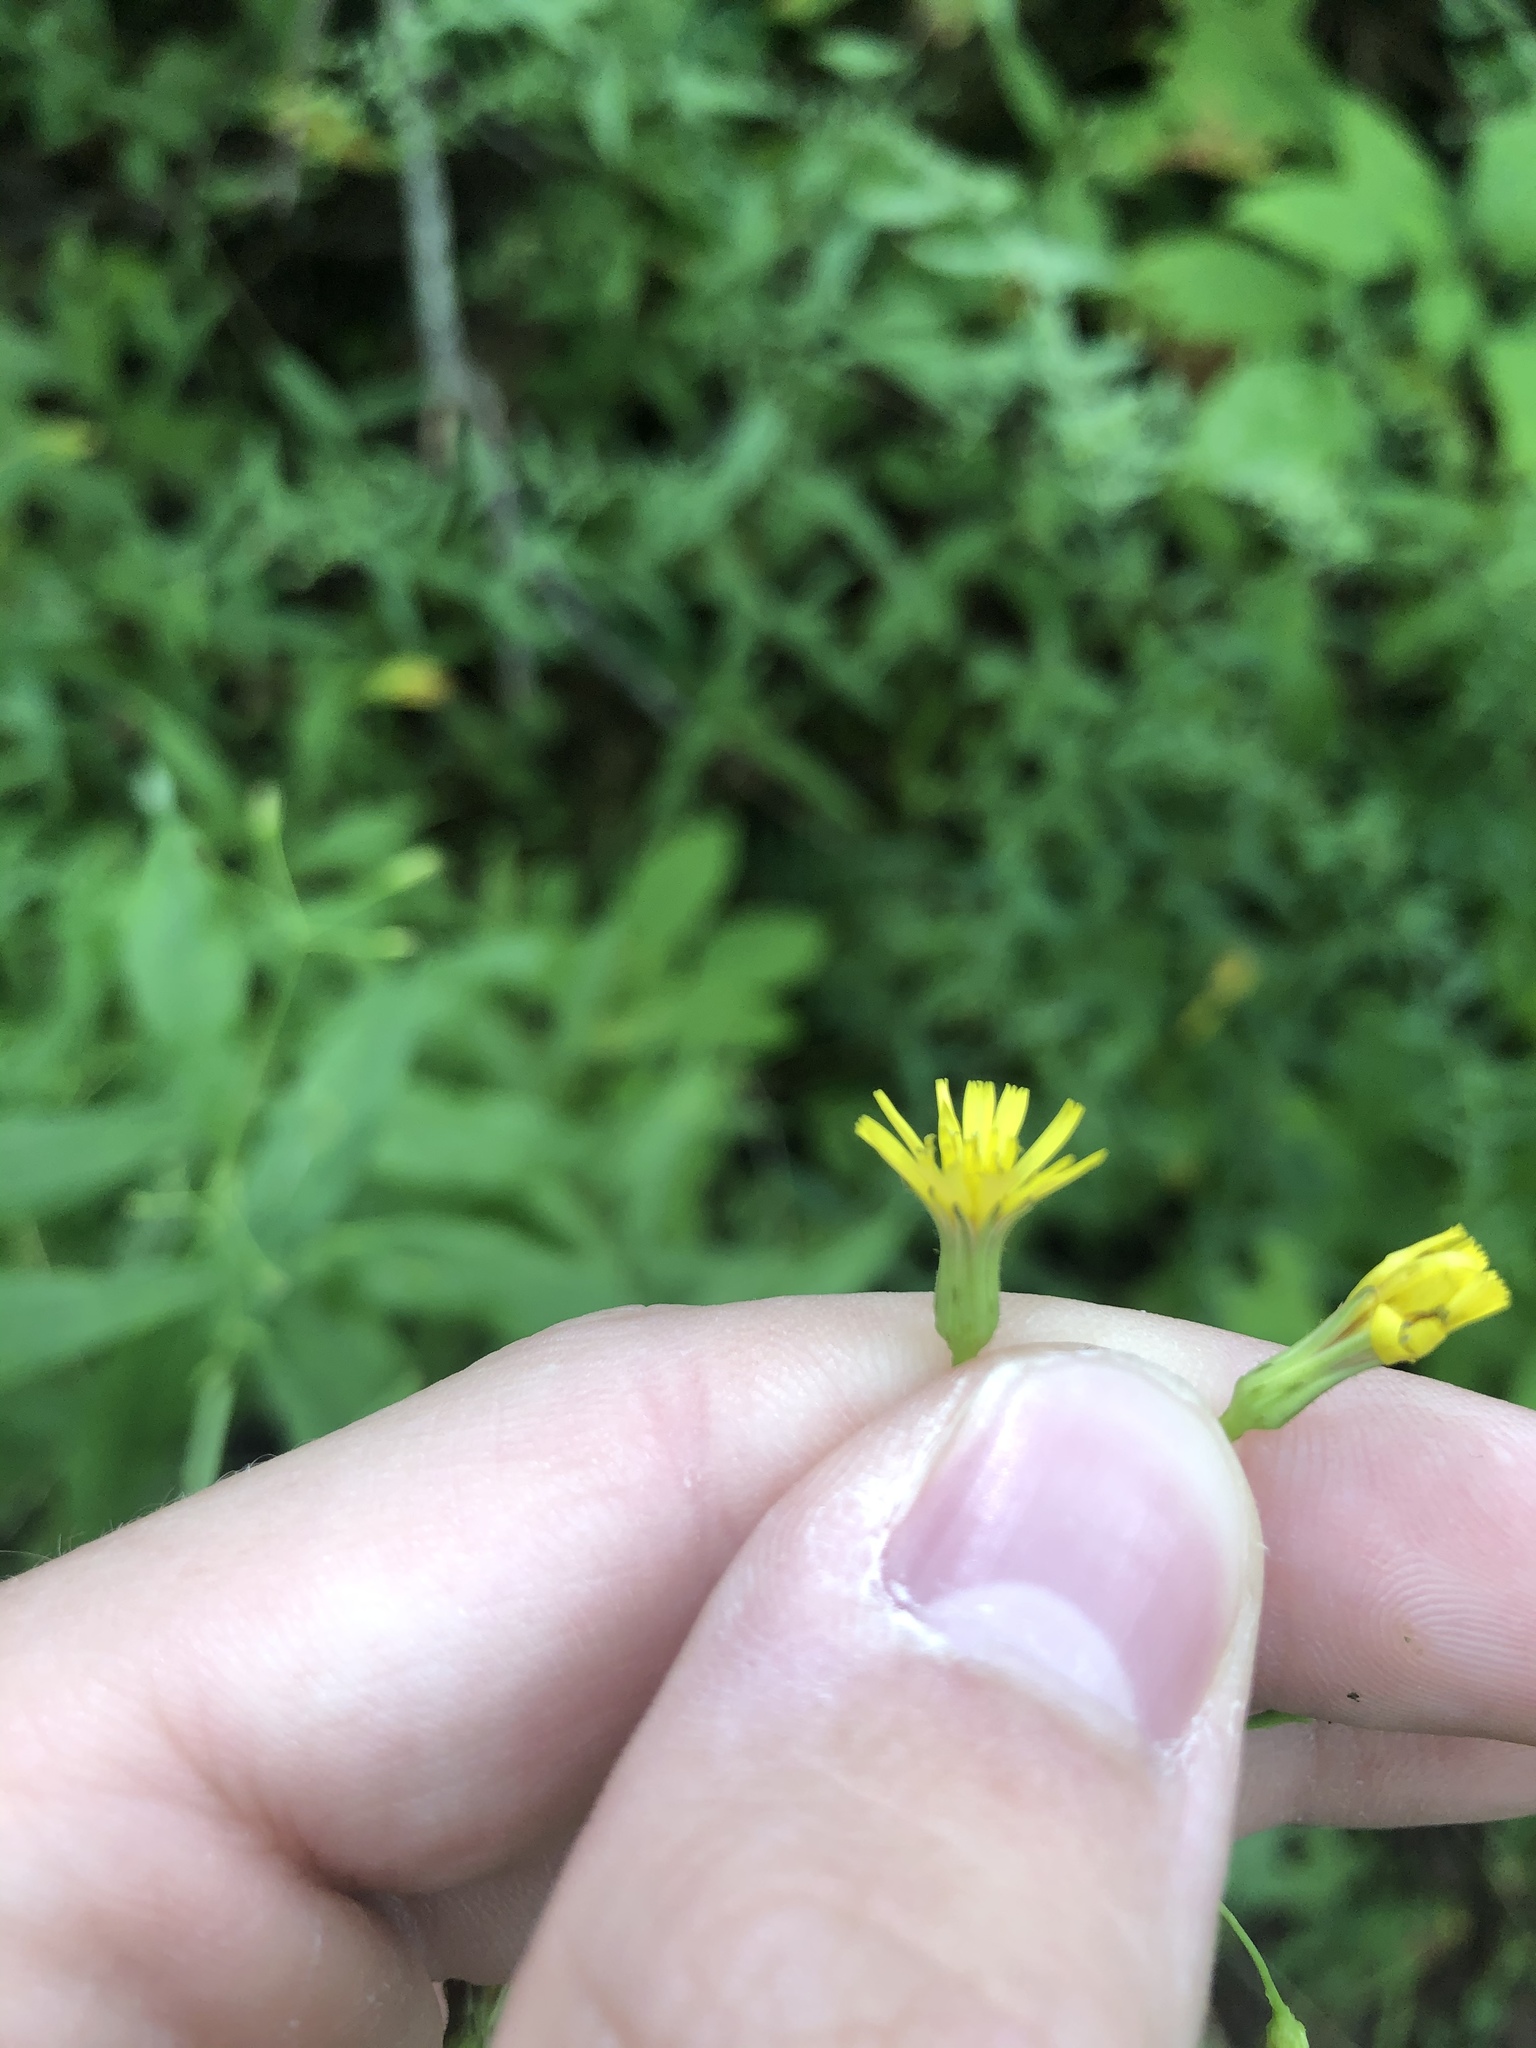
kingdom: Plantae
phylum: Tracheophyta
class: Magnoliopsida
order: Asterales
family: Asteraceae
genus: Hieracium
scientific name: Hieracium paniculatum
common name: Allegheny hawkweed
